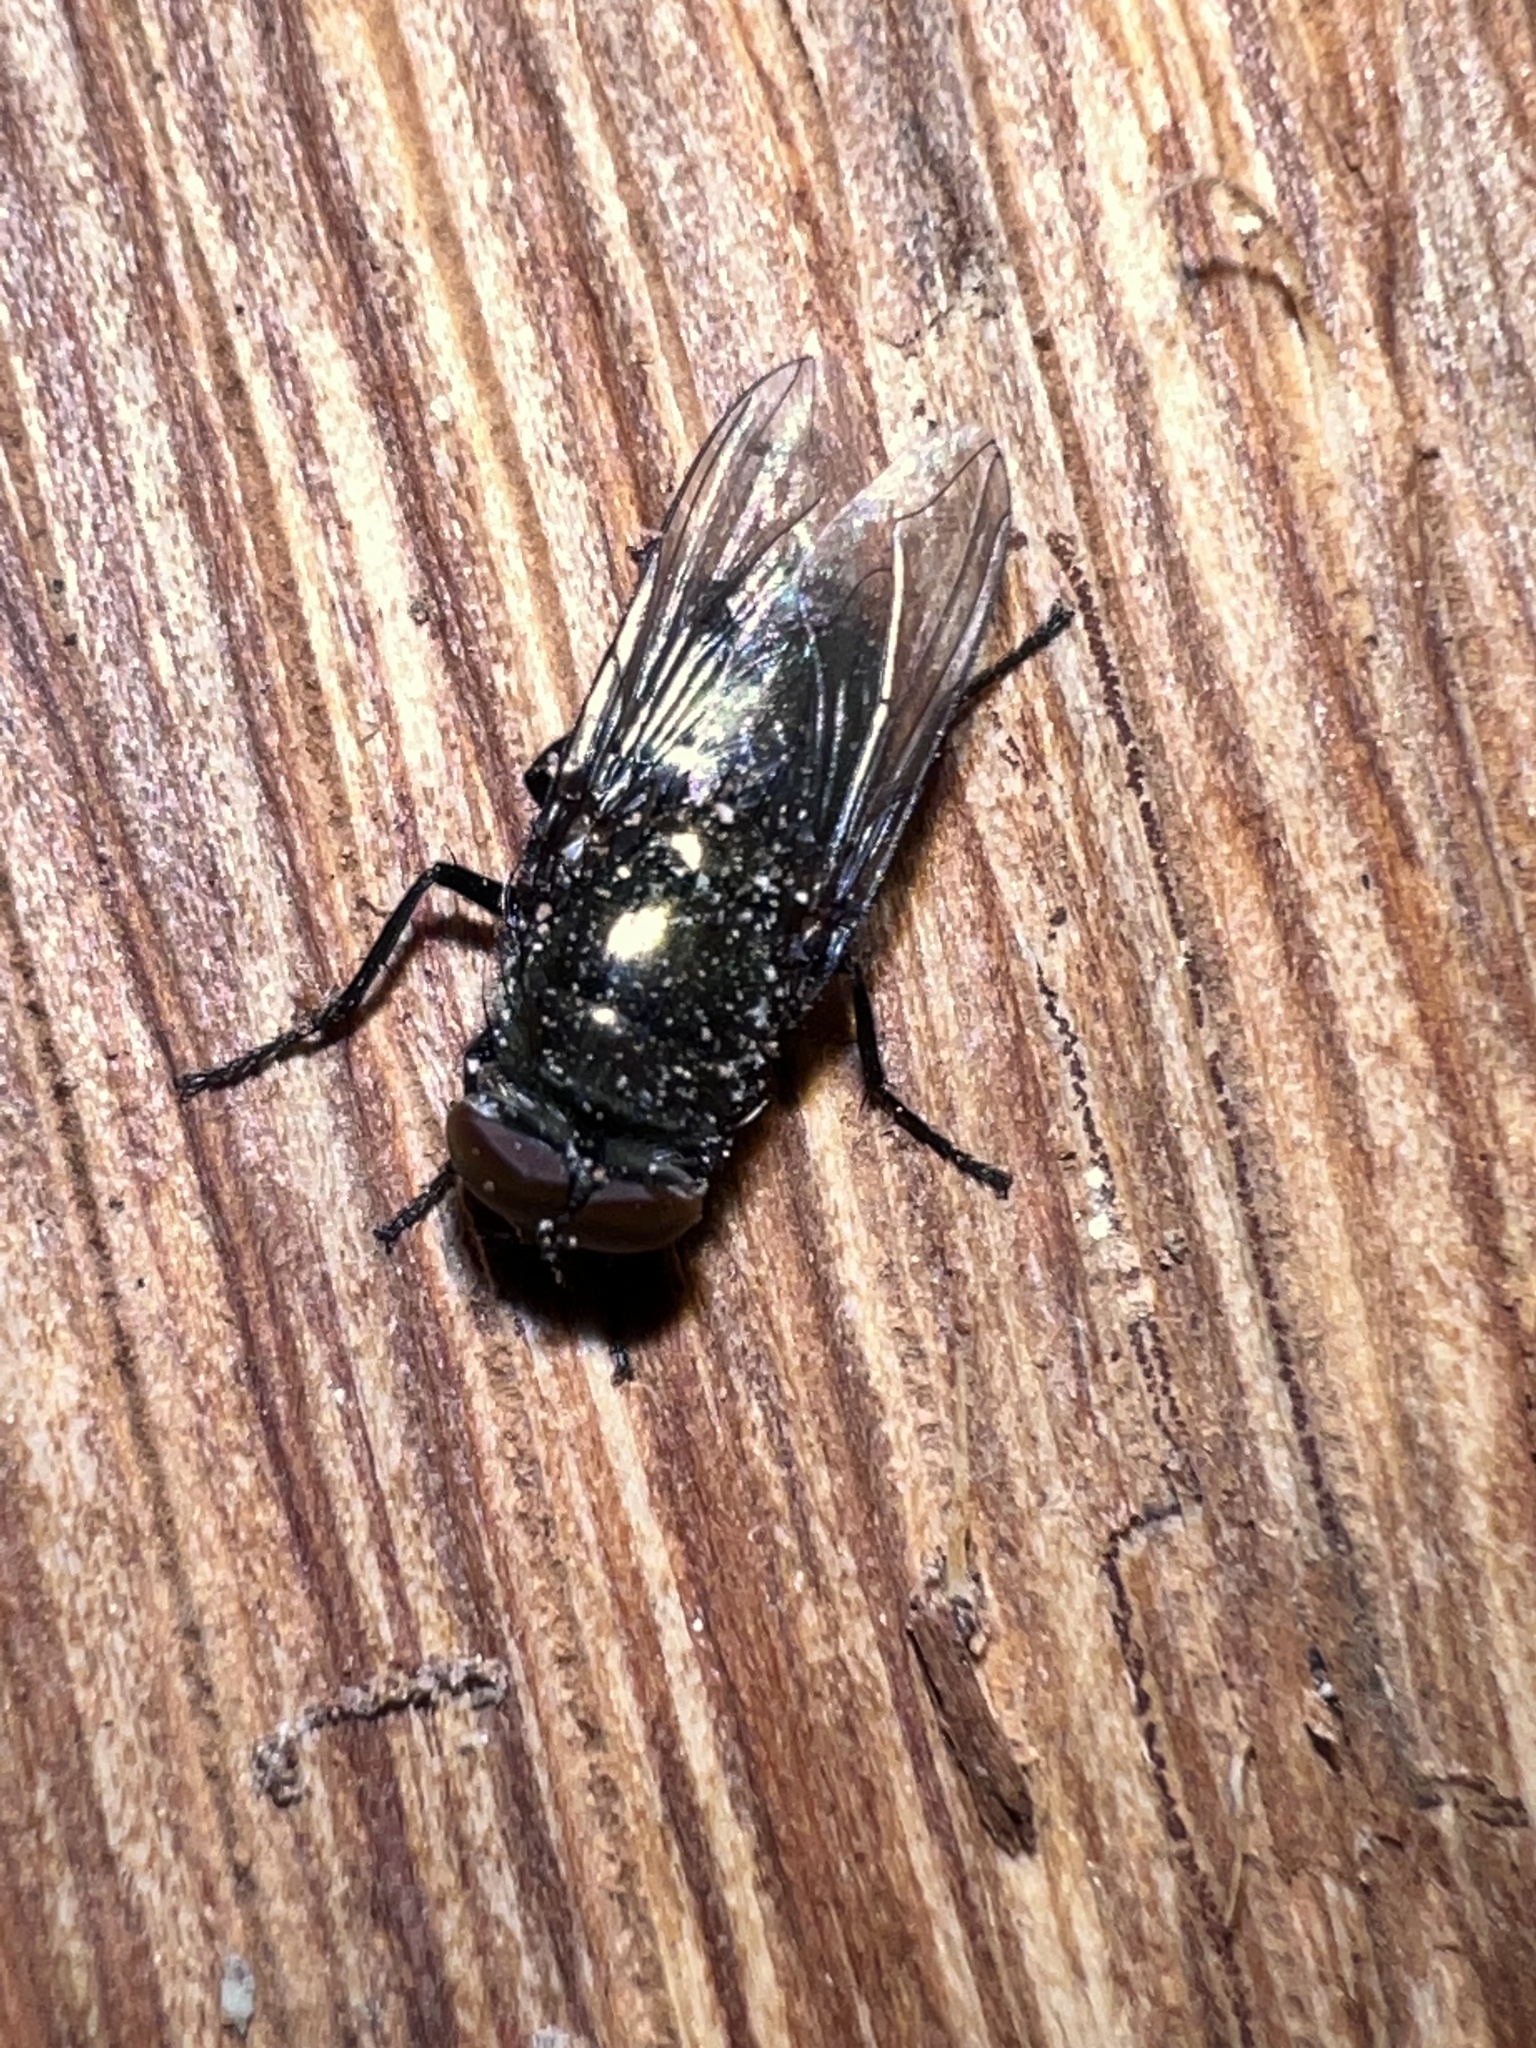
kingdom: Animalia
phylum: Arthropoda
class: Insecta
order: Diptera
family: Calliphoridae
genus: Phormia
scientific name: Phormia regina
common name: Black blow fly
